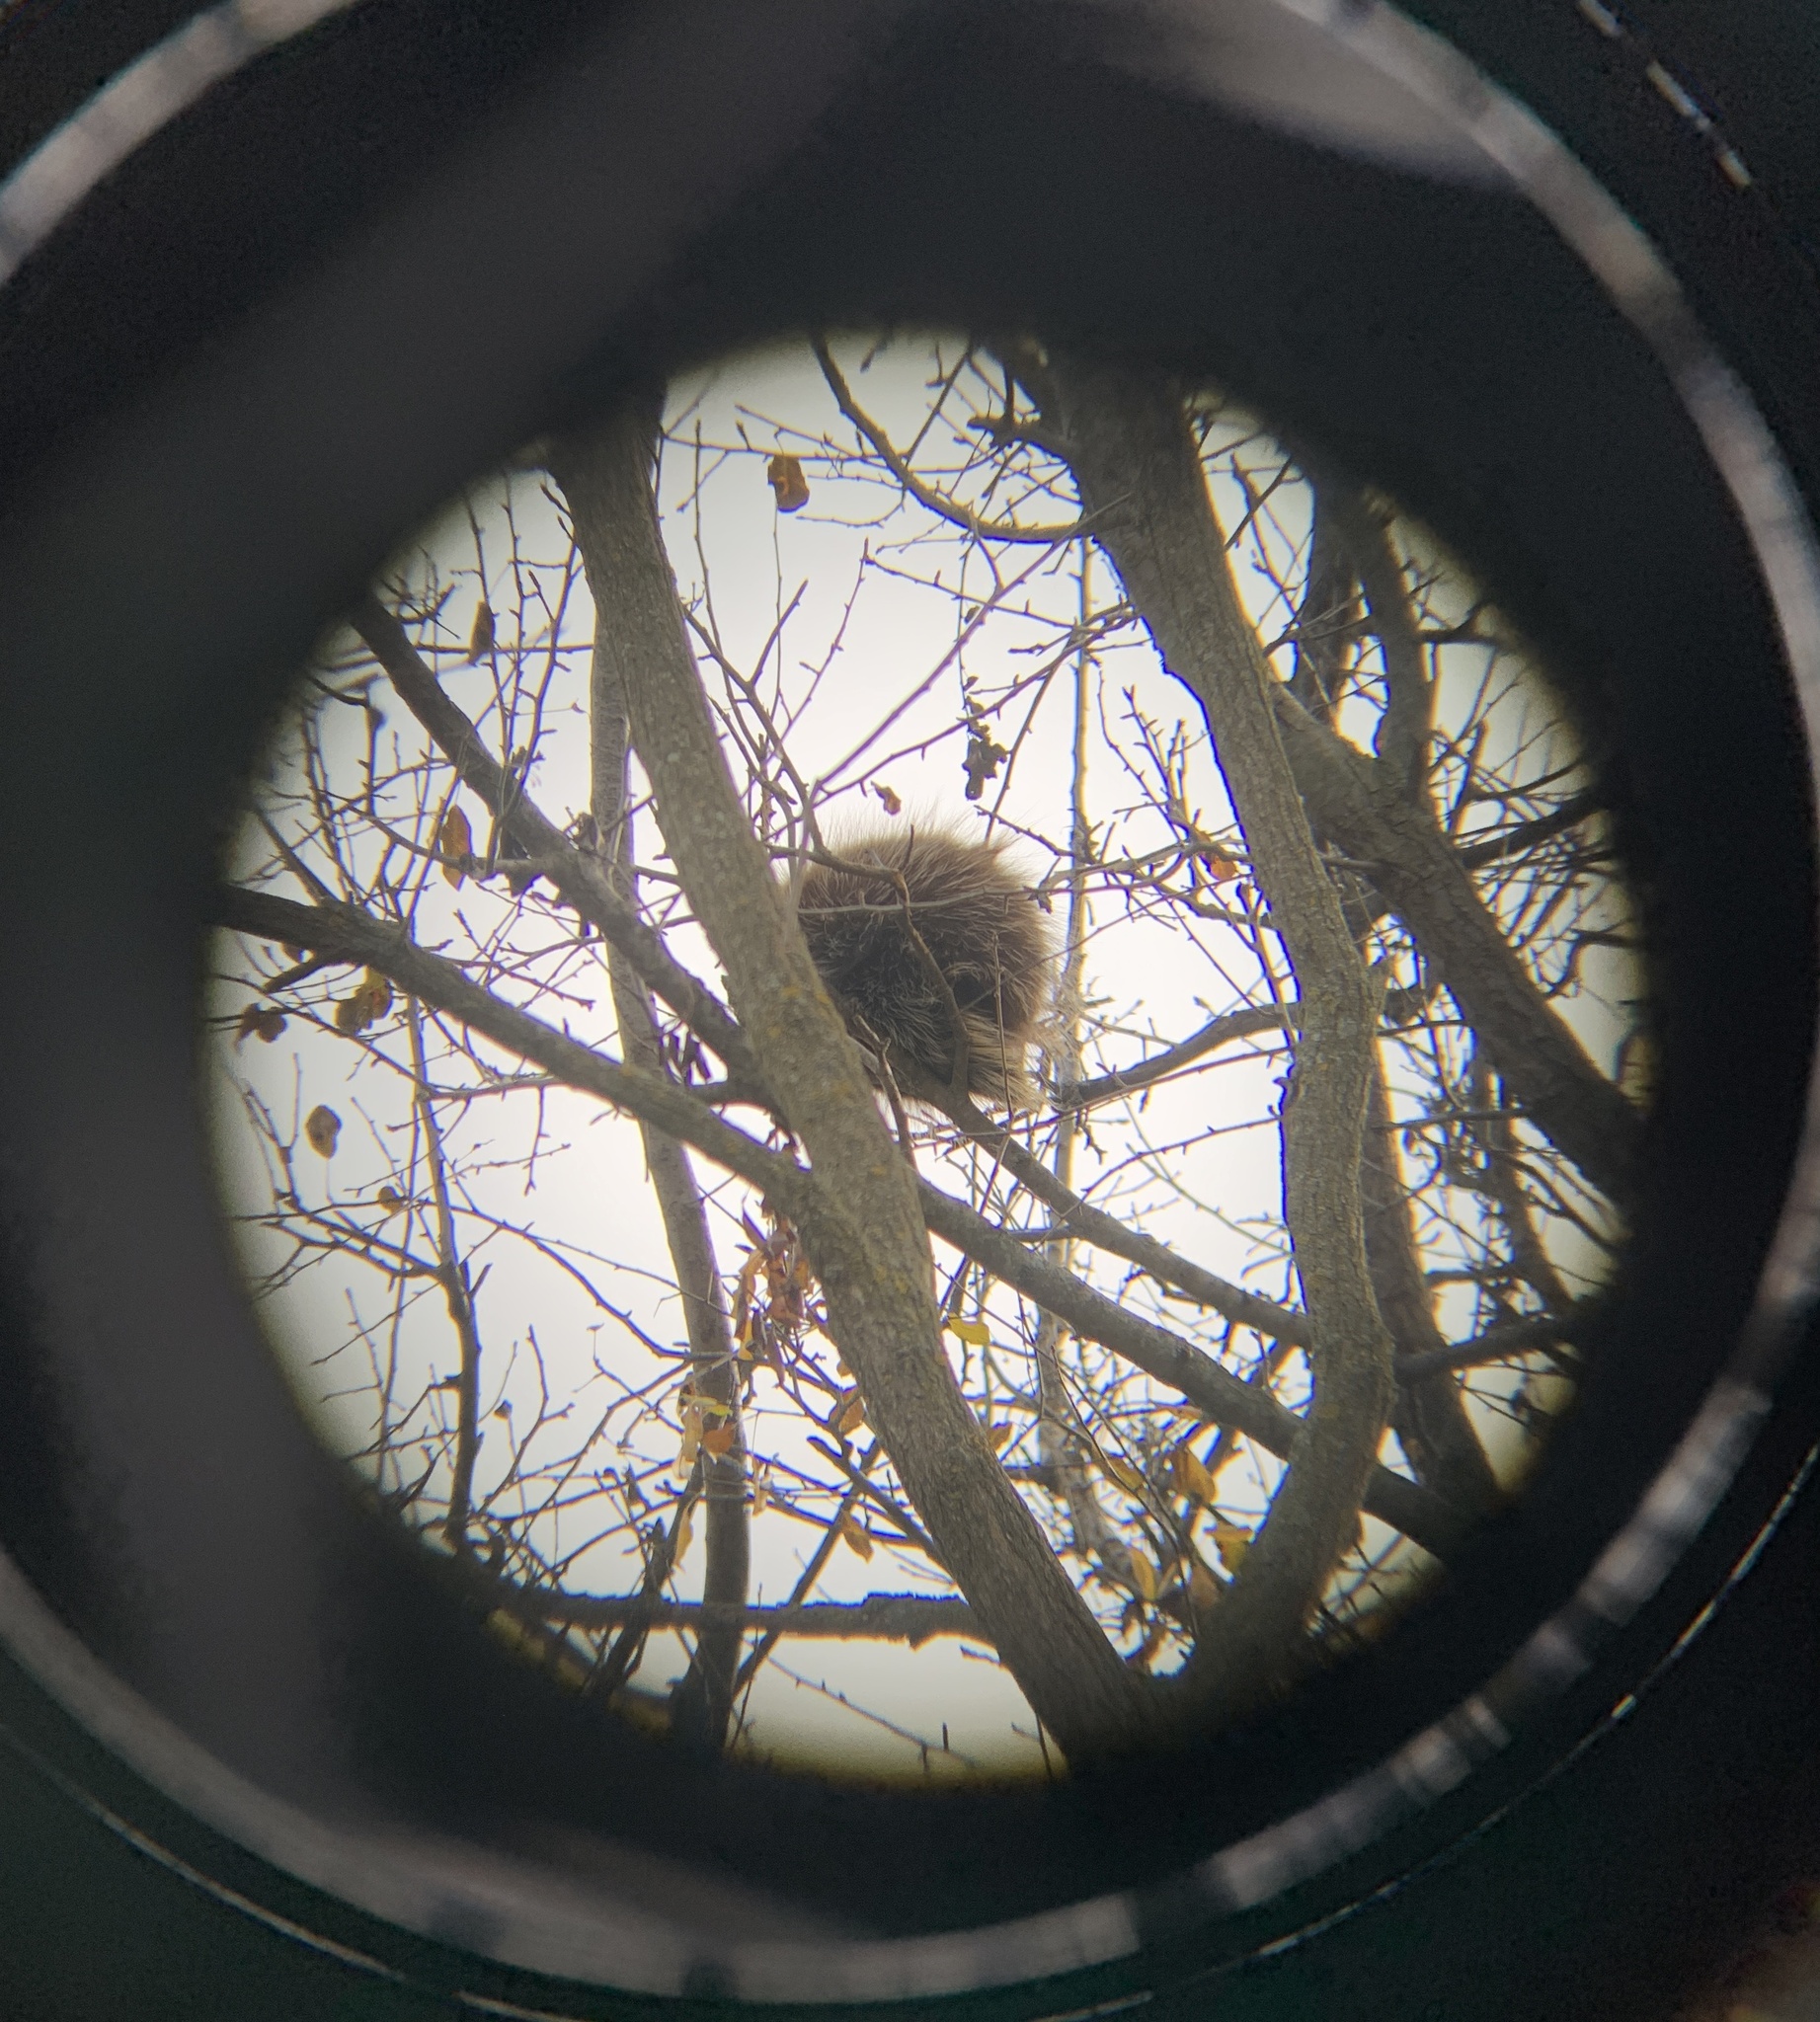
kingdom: Animalia
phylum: Chordata
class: Mammalia
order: Rodentia
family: Erethizontidae
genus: Erethizon
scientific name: Erethizon dorsatus
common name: North american porcupine
